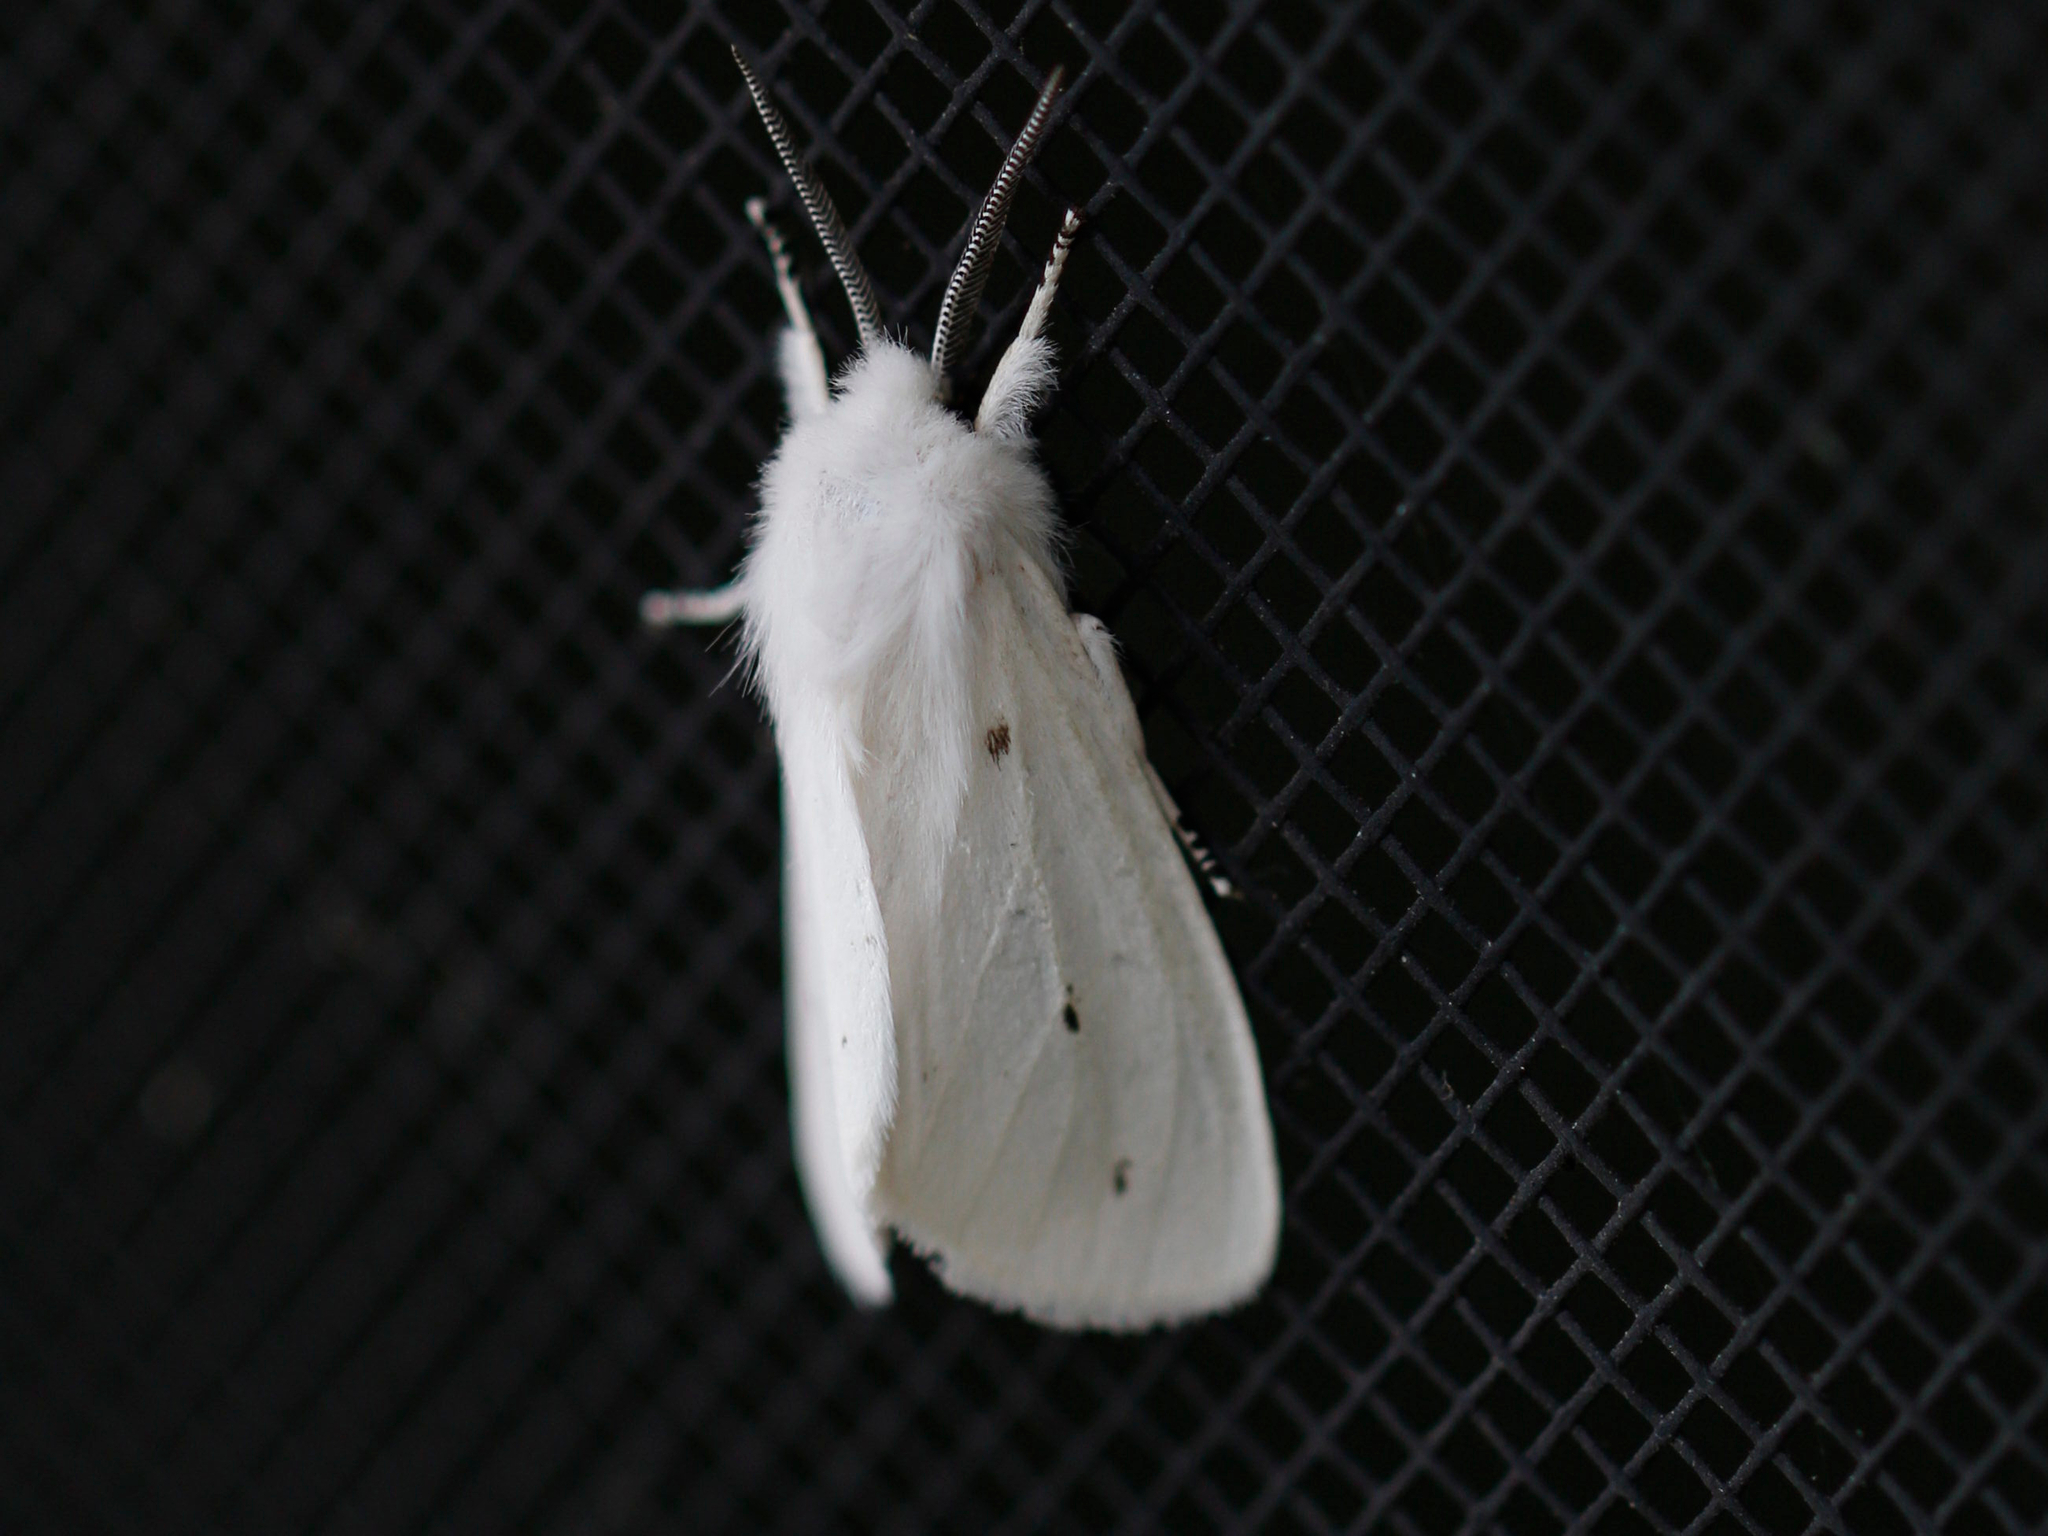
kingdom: Animalia
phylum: Arthropoda
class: Insecta
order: Lepidoptera
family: Erebidae
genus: Spilosoma
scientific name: Spilosoma virginica
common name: Virginia tiger moth
